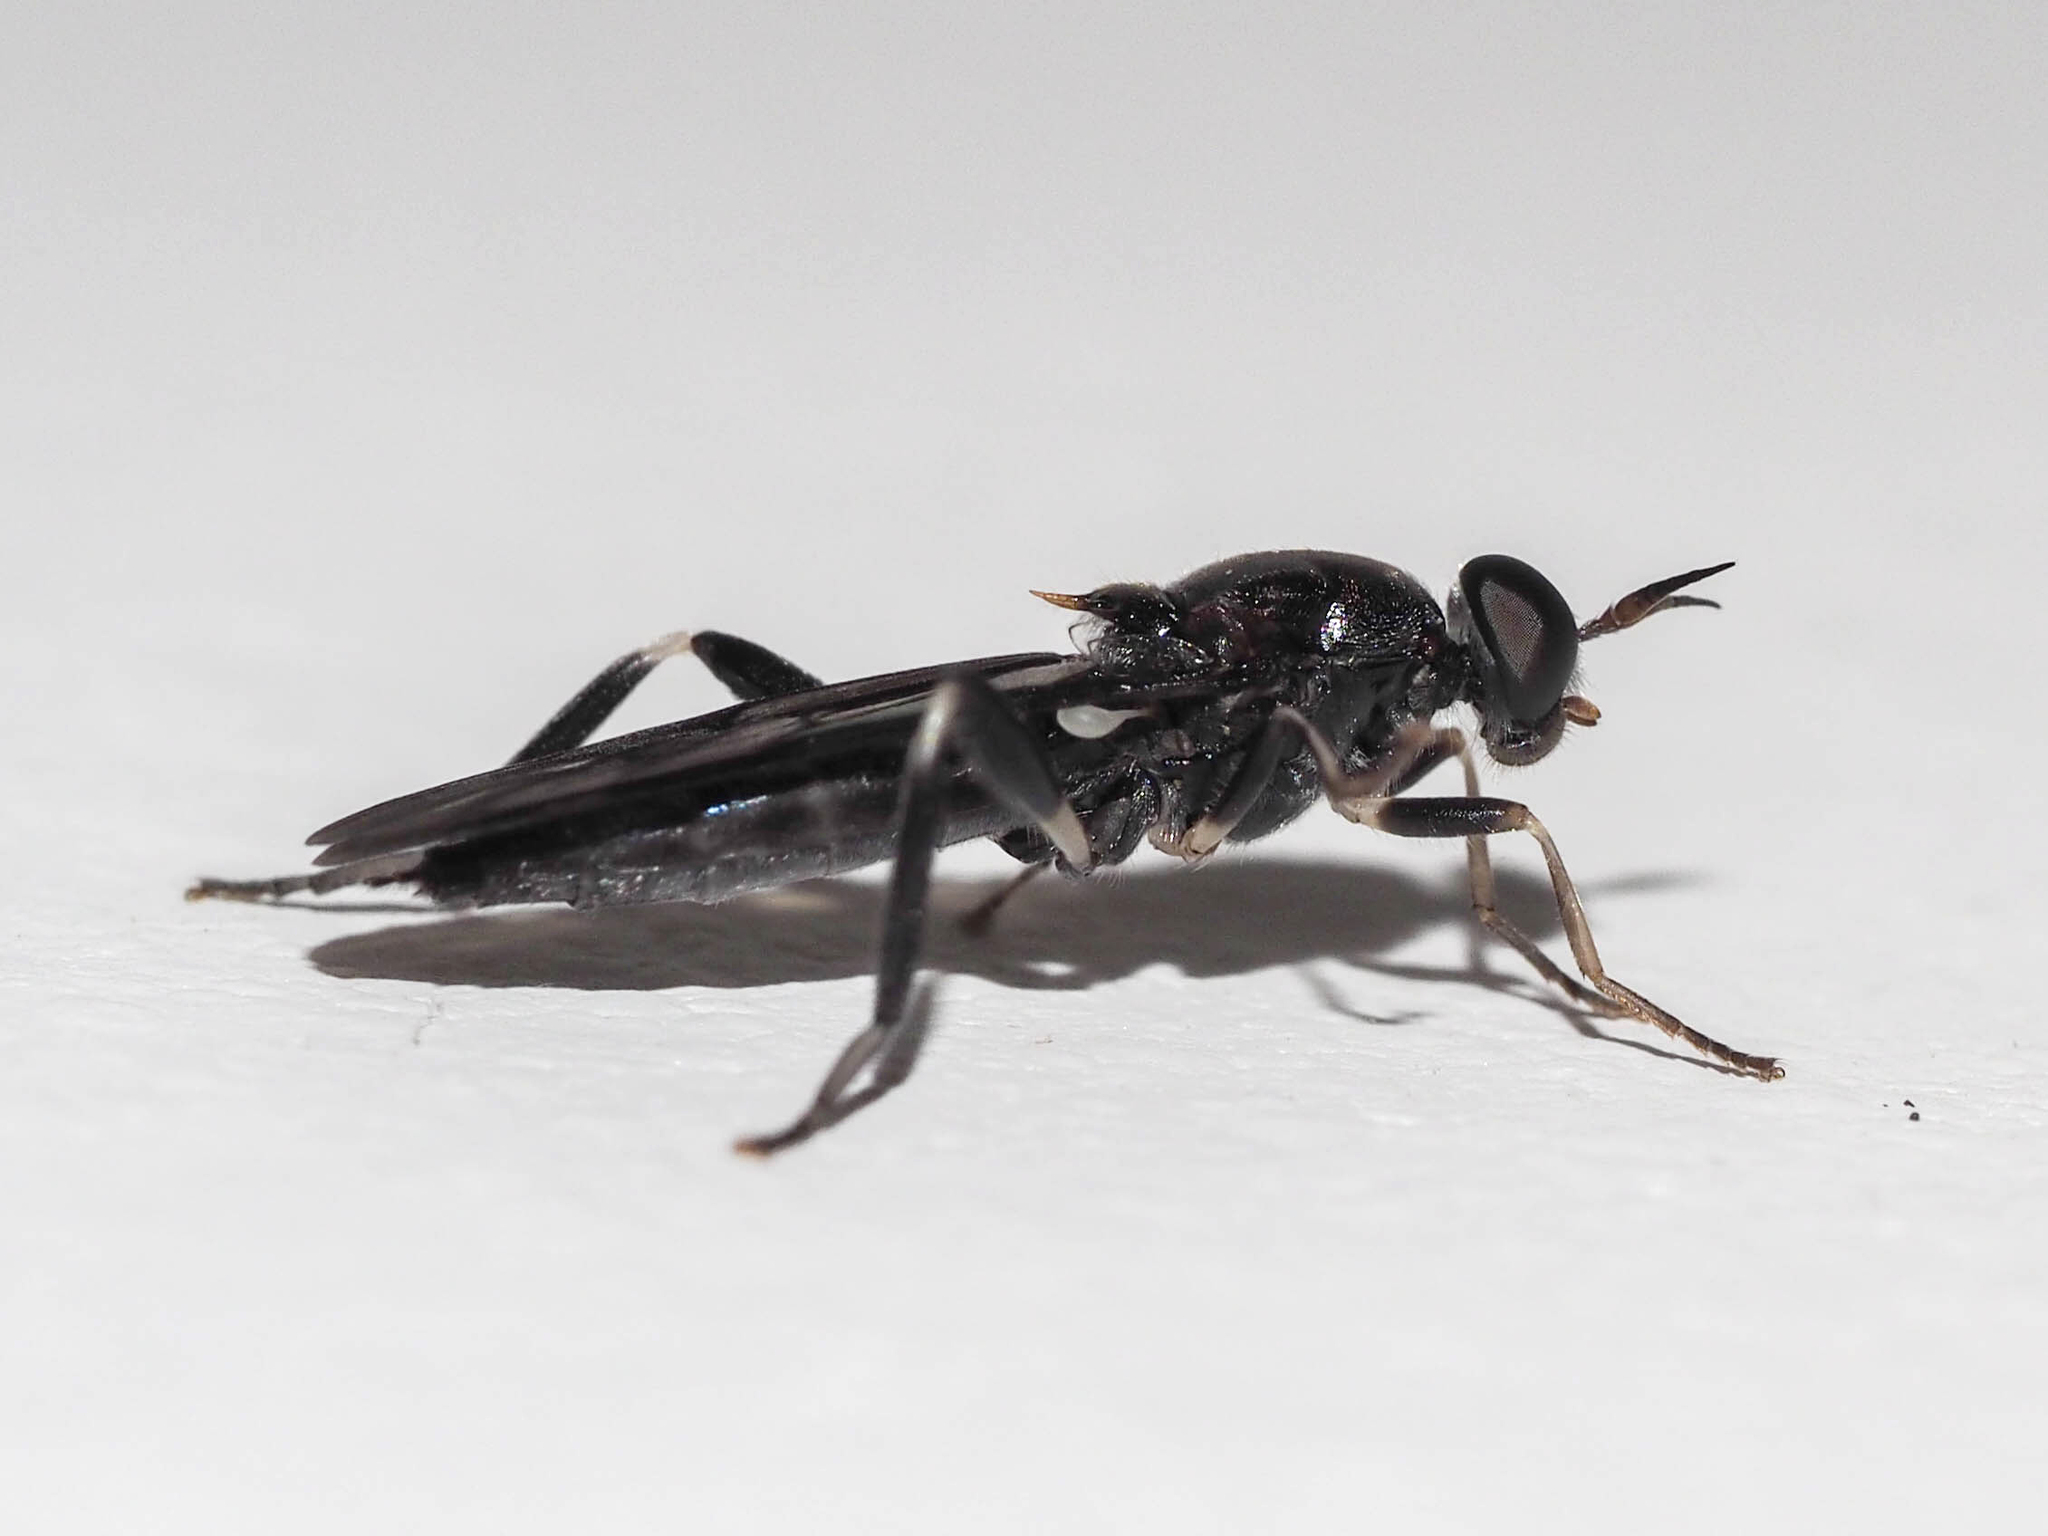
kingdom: Animalia
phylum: Arthropoda
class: Insecta
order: Diptera
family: Stratiomyidae
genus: Exaireta
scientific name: Exaireta spinigera
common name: Blue soldier fly
